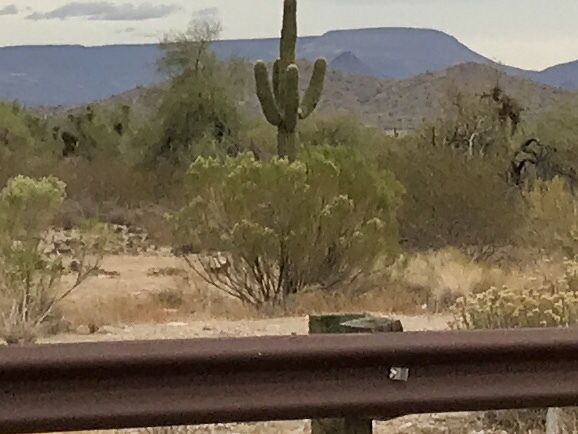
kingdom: Plantae
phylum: Tracheophyta
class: Magnoliopsida
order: Asterales
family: Asteraceae
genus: Baccharis
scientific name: Baccharis sarothroides
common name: Desert-broom
